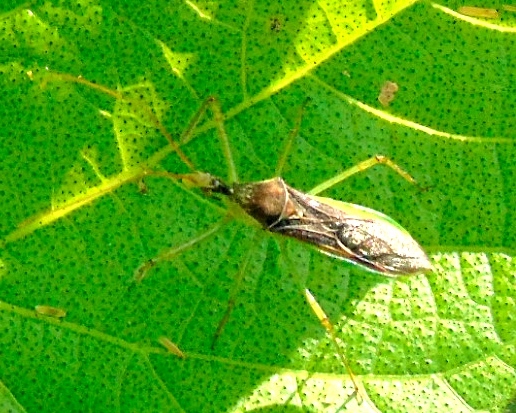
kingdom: Animalia
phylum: Arthropoda
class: Insecta
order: Hemiptera
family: Reduviidae
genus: Zelus
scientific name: Zelus
